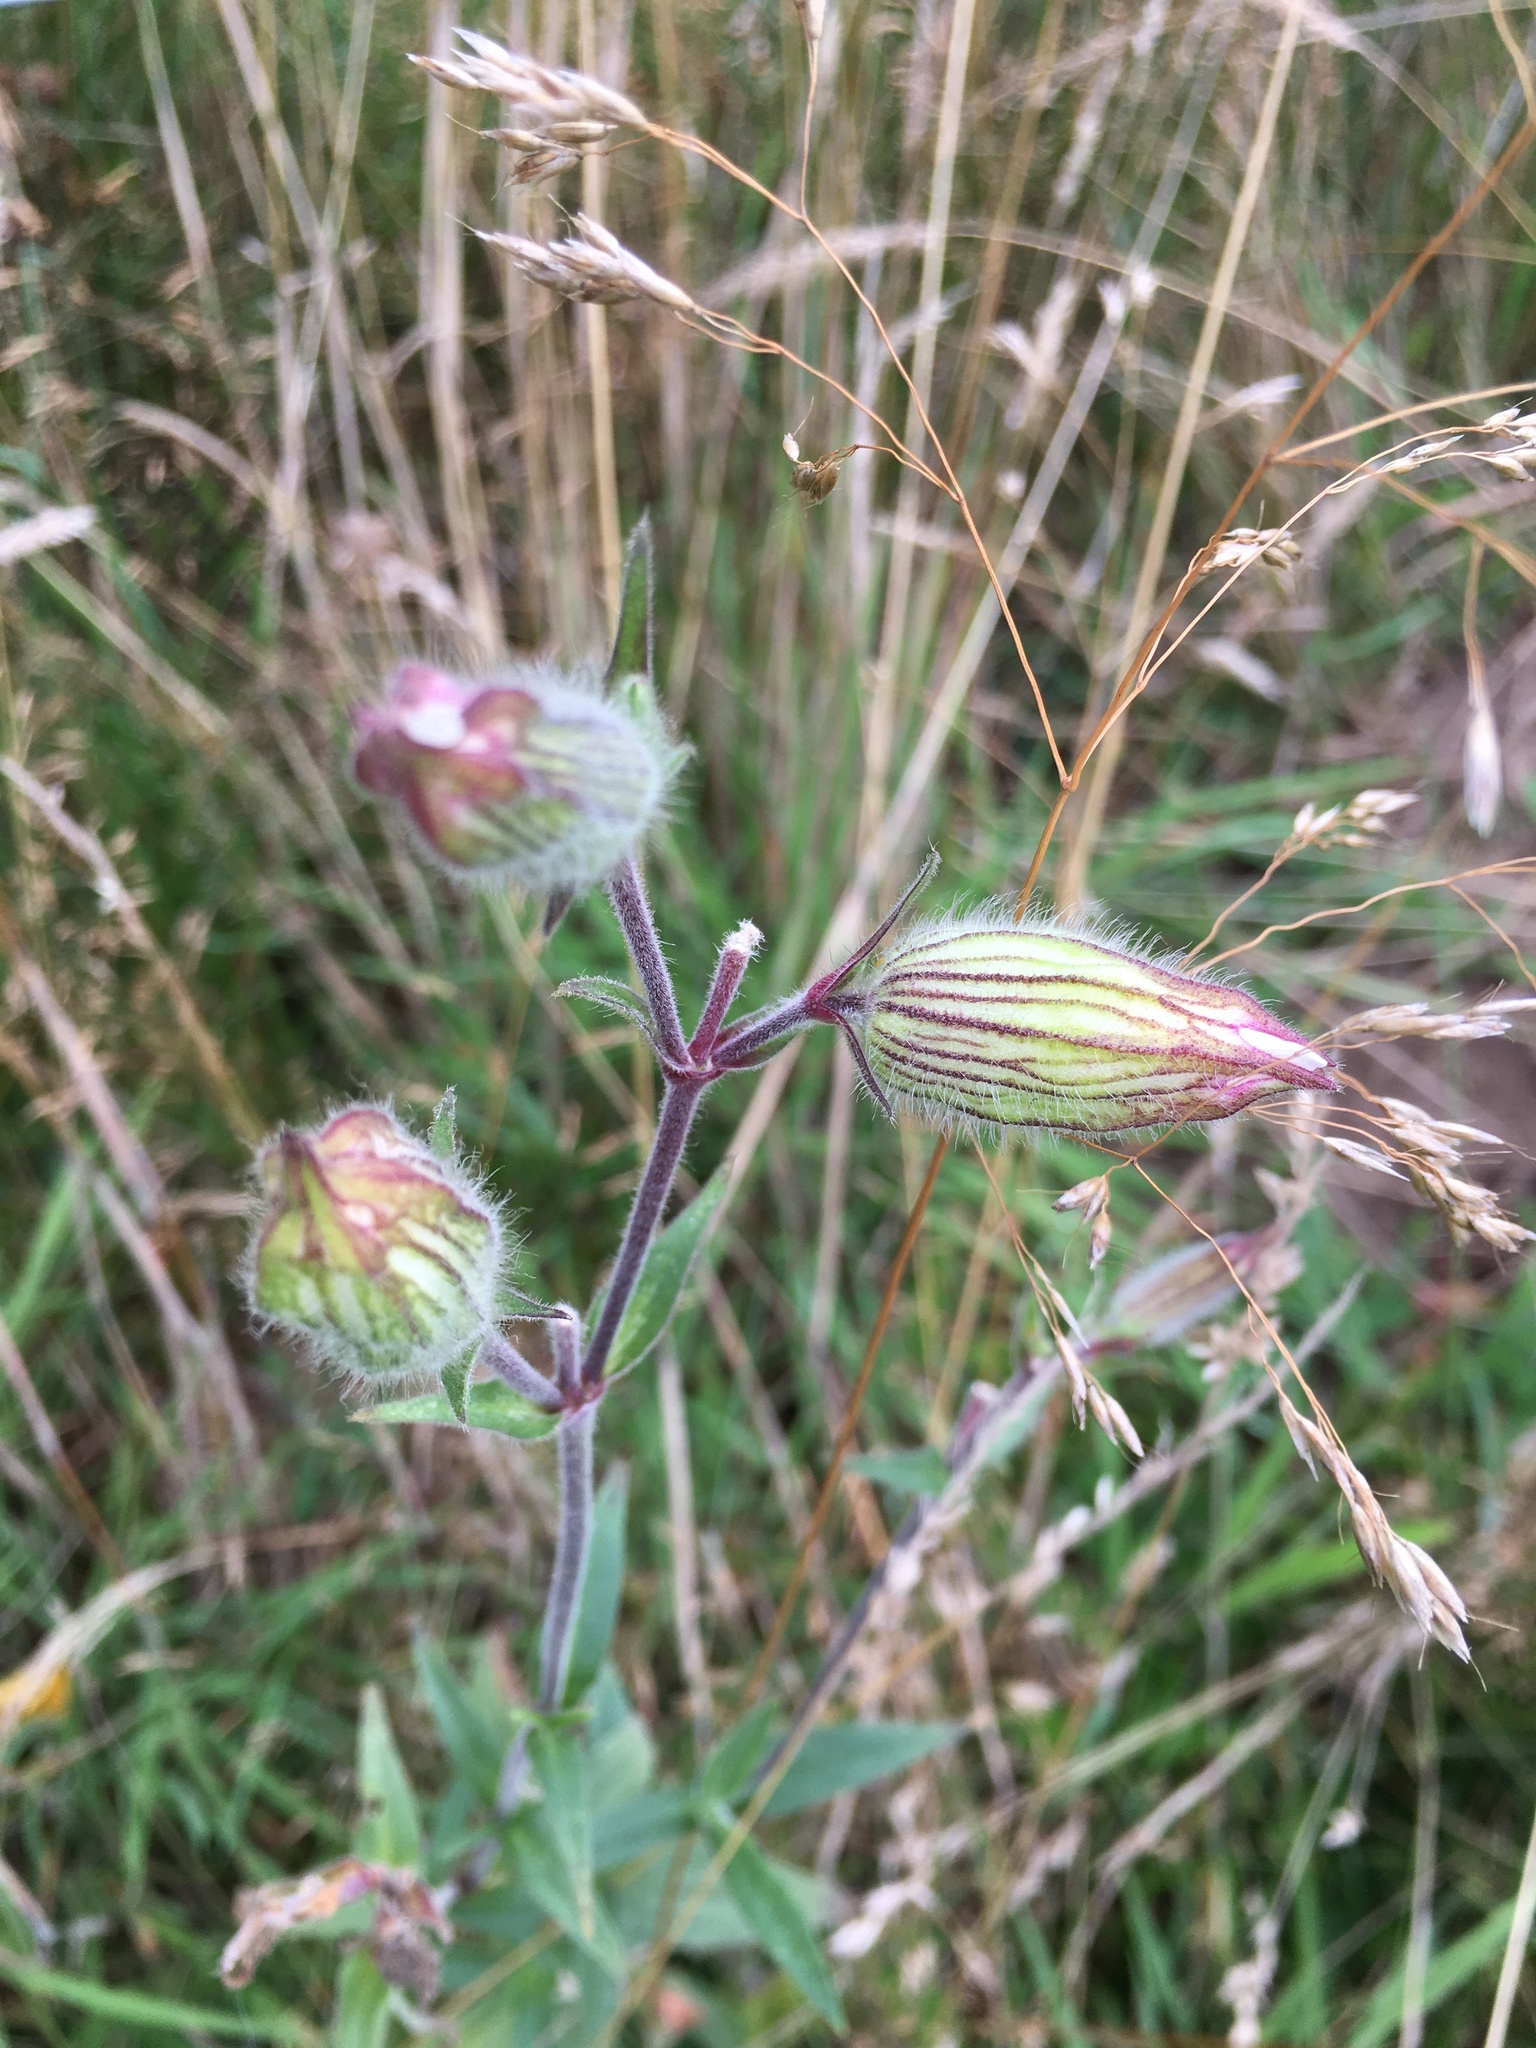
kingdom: Plantae
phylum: Tracheophyta
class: Magnoliopsida
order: Caryophyllales
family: Caryophyllaceae
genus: Silene
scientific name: Silene latifolia
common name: White campion
